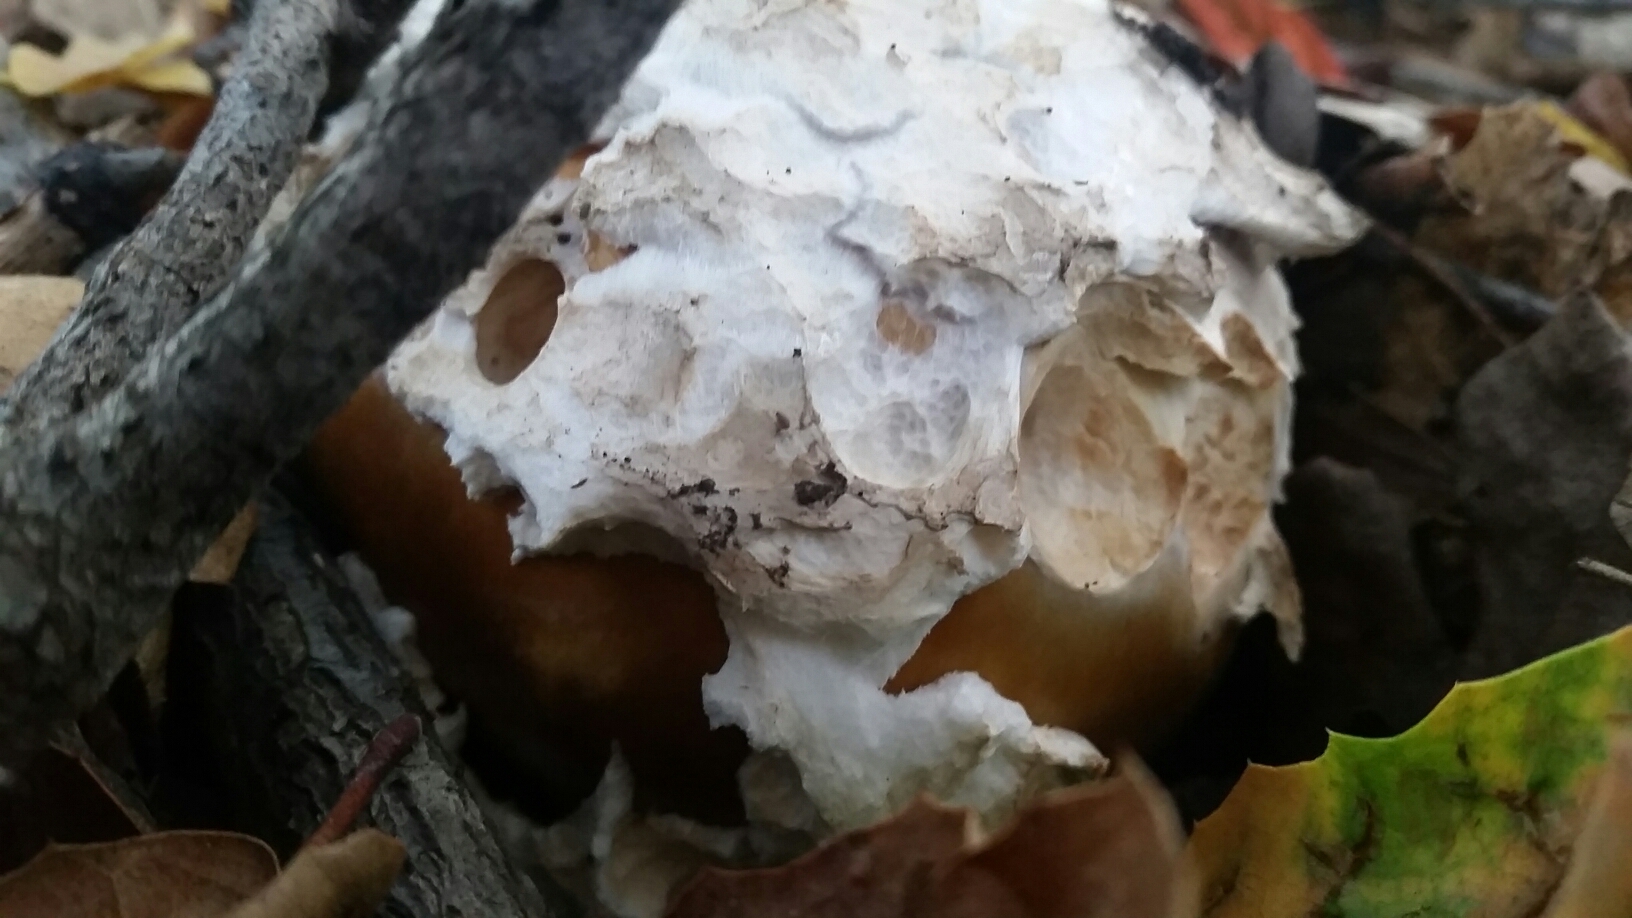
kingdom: Fungi
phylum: Basidiomycota
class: Agaricomycetes
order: Agaricales
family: Amanitaceae
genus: Amanita
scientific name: Amanita calyptroderma
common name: Coccora
